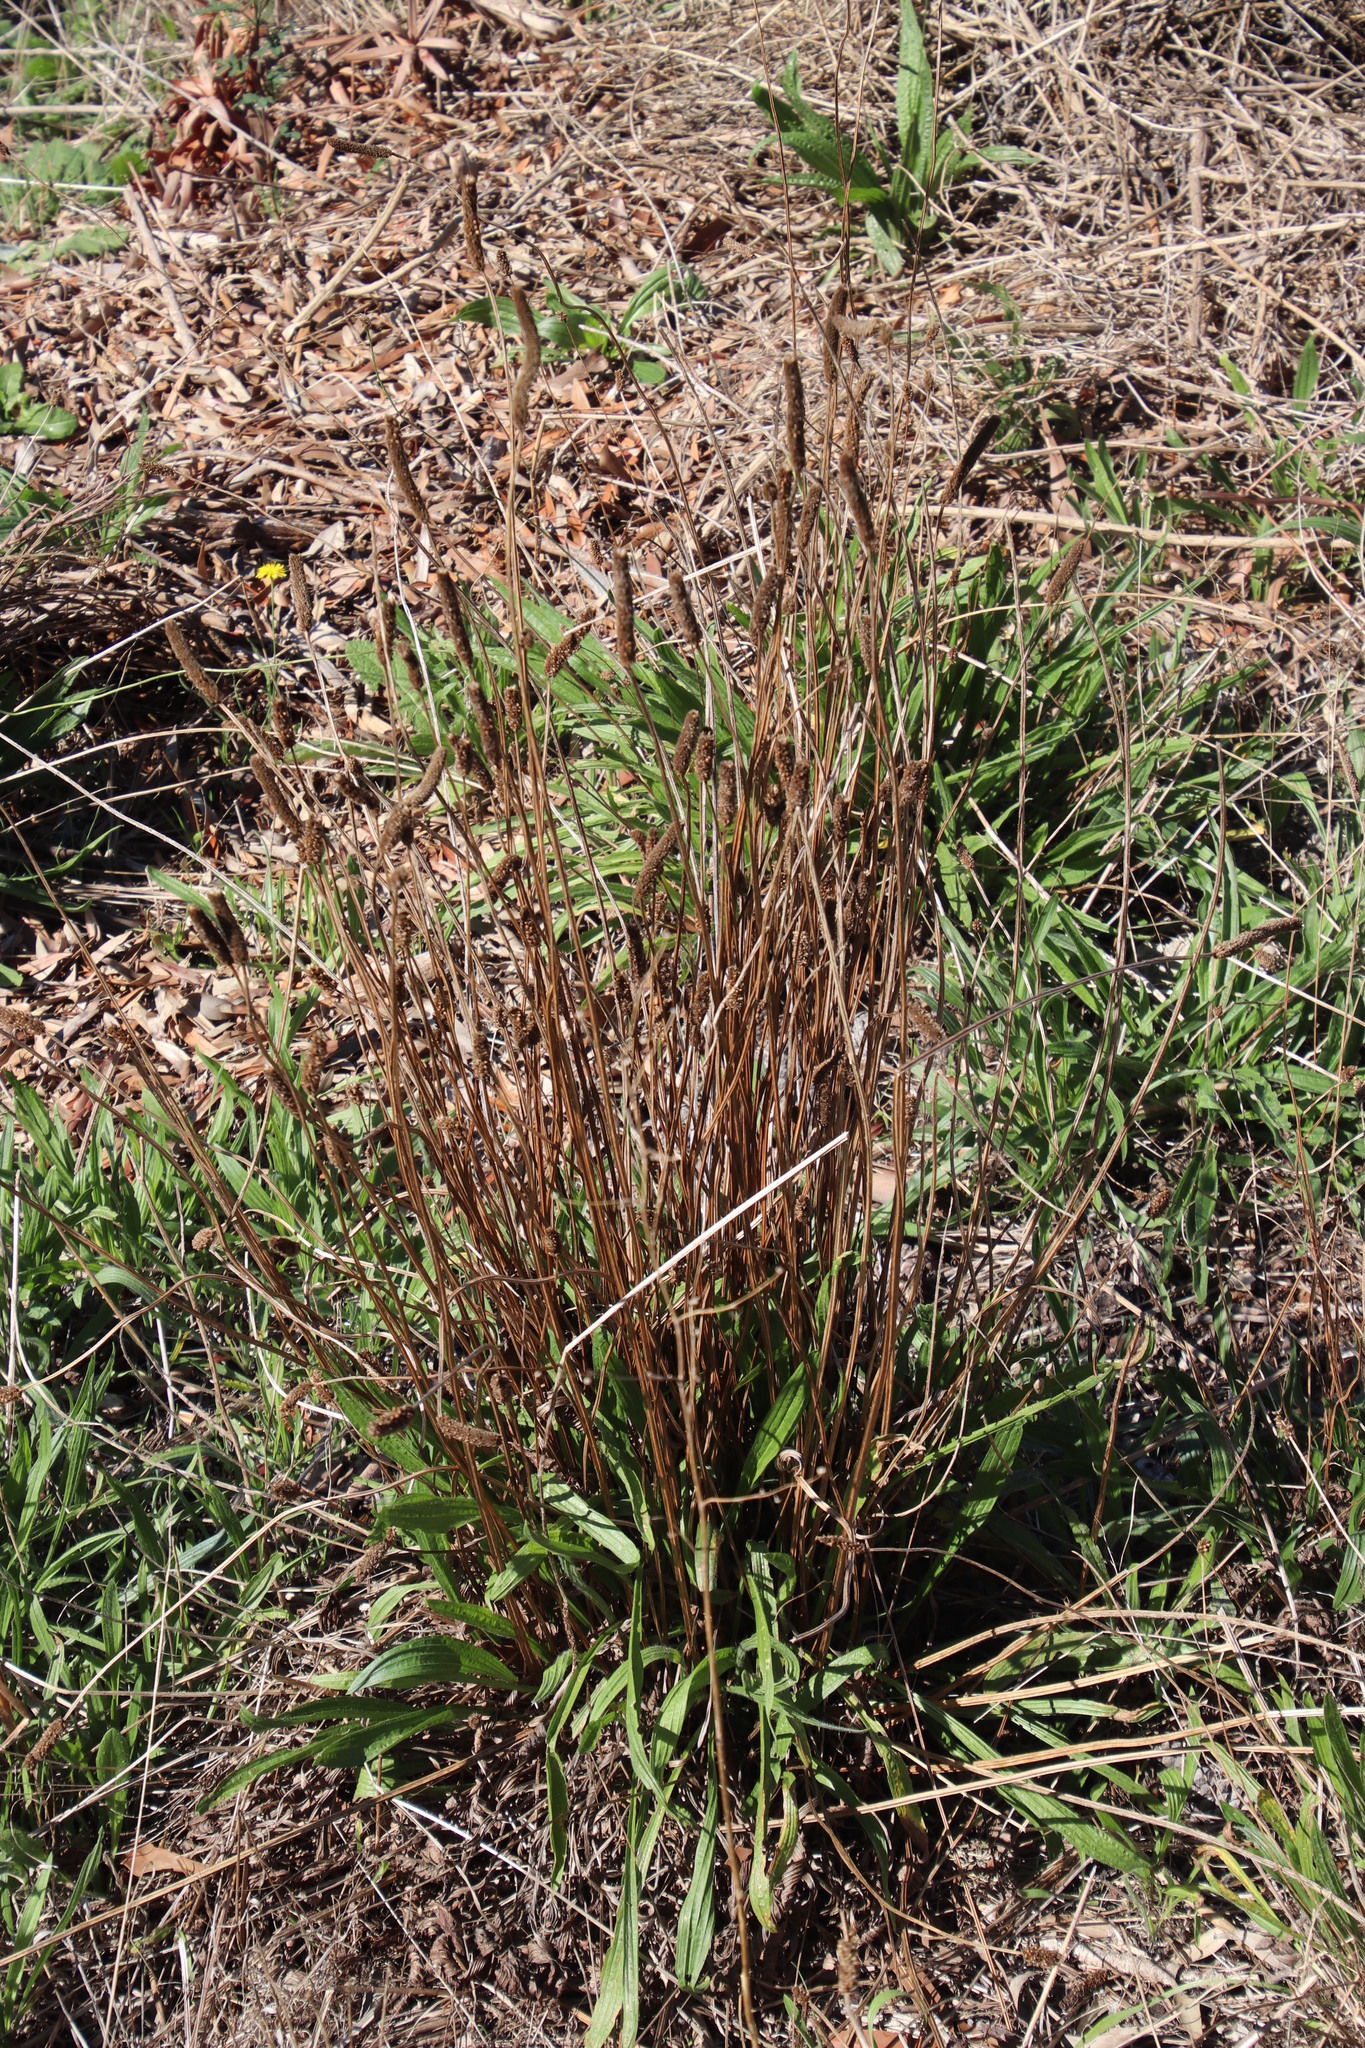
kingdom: Plantae
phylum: Tracheophyta
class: Magnoliopsida
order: Lamiales
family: Plantaginaceae
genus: Plantago
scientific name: Plantago lanceolata
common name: Ribwort plantain
